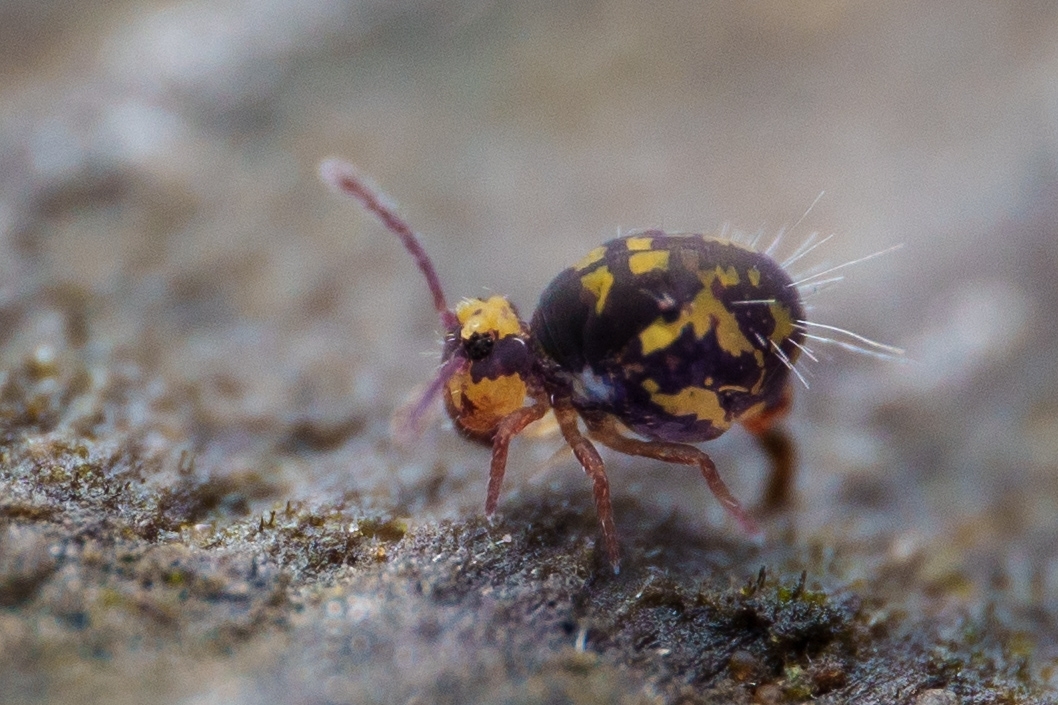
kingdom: Animalia
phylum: Arthropoda
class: Collembola
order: Symphypleona
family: Dicyrtomidae
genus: Dicyrtoma
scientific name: Dicyrtoma hageni
